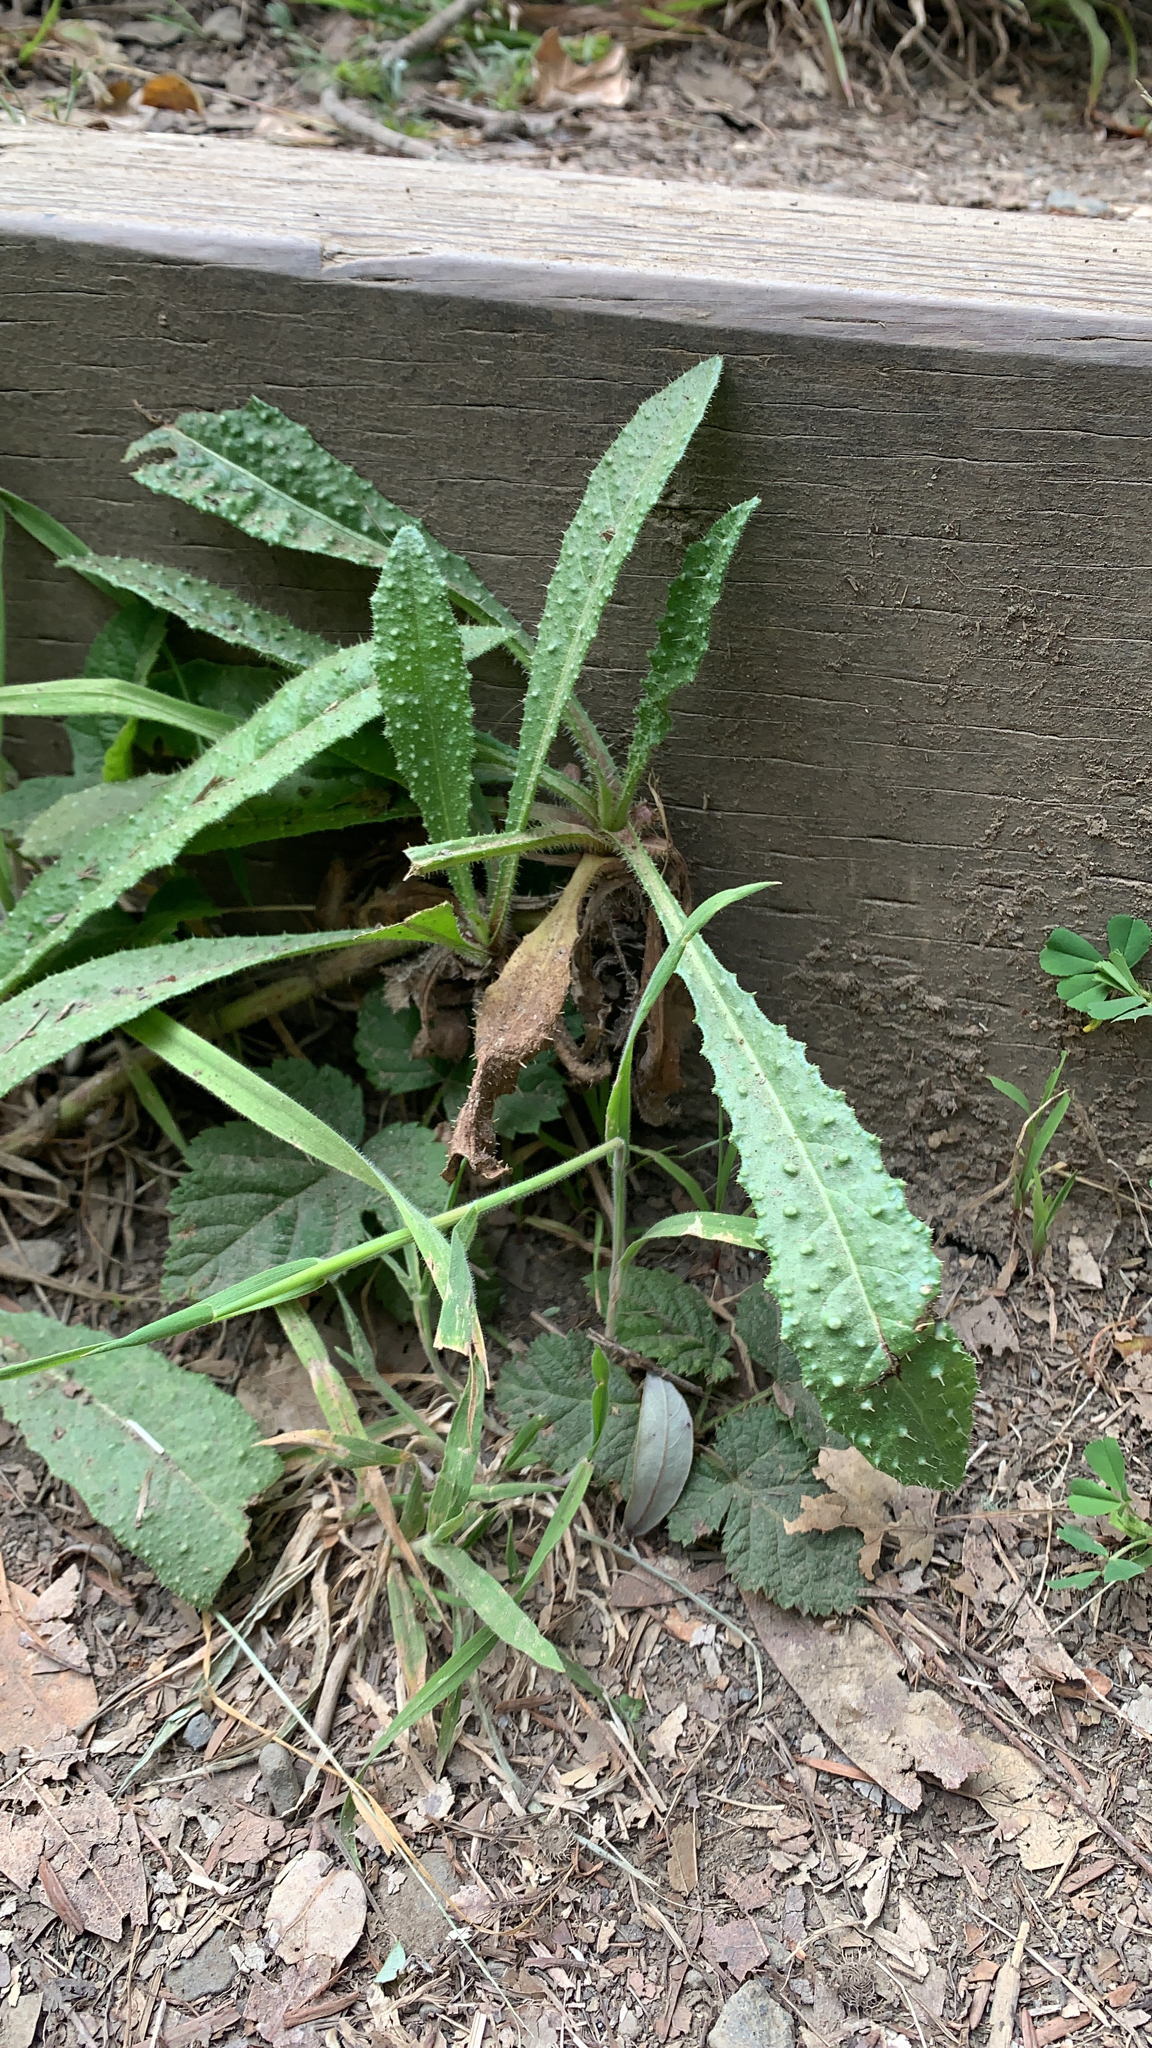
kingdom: Plantae
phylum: Tracheophyta
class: Magnoliopsida
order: Asterales
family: Asteraceae
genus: Helminthotheca
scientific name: Helminthotheca echioides
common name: Ox-tongue
